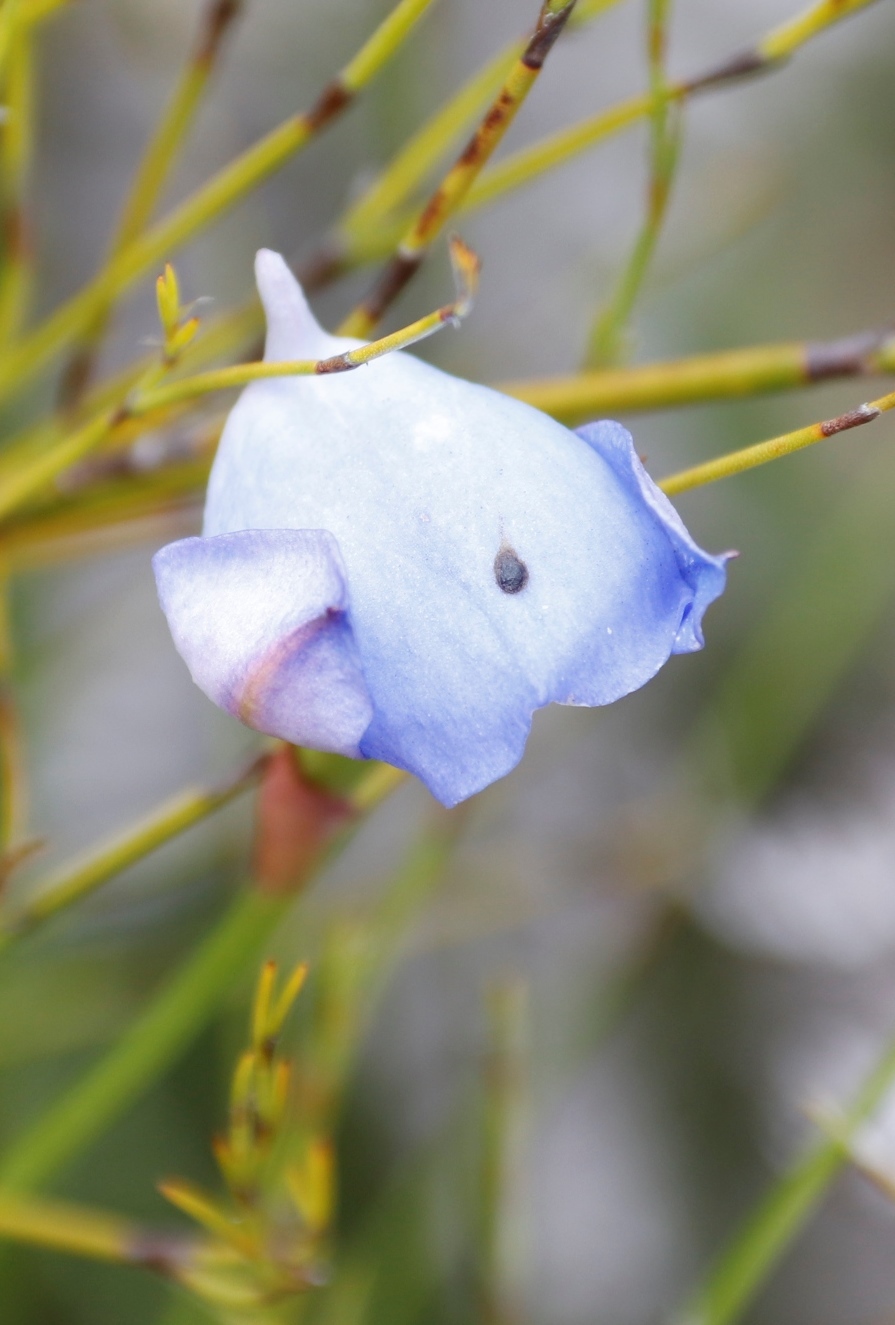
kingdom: Plantae
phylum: Tracheophyta
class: Liliopsida
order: Asparagales
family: Orchidaceae
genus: Disa
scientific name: Disa graminifolia
